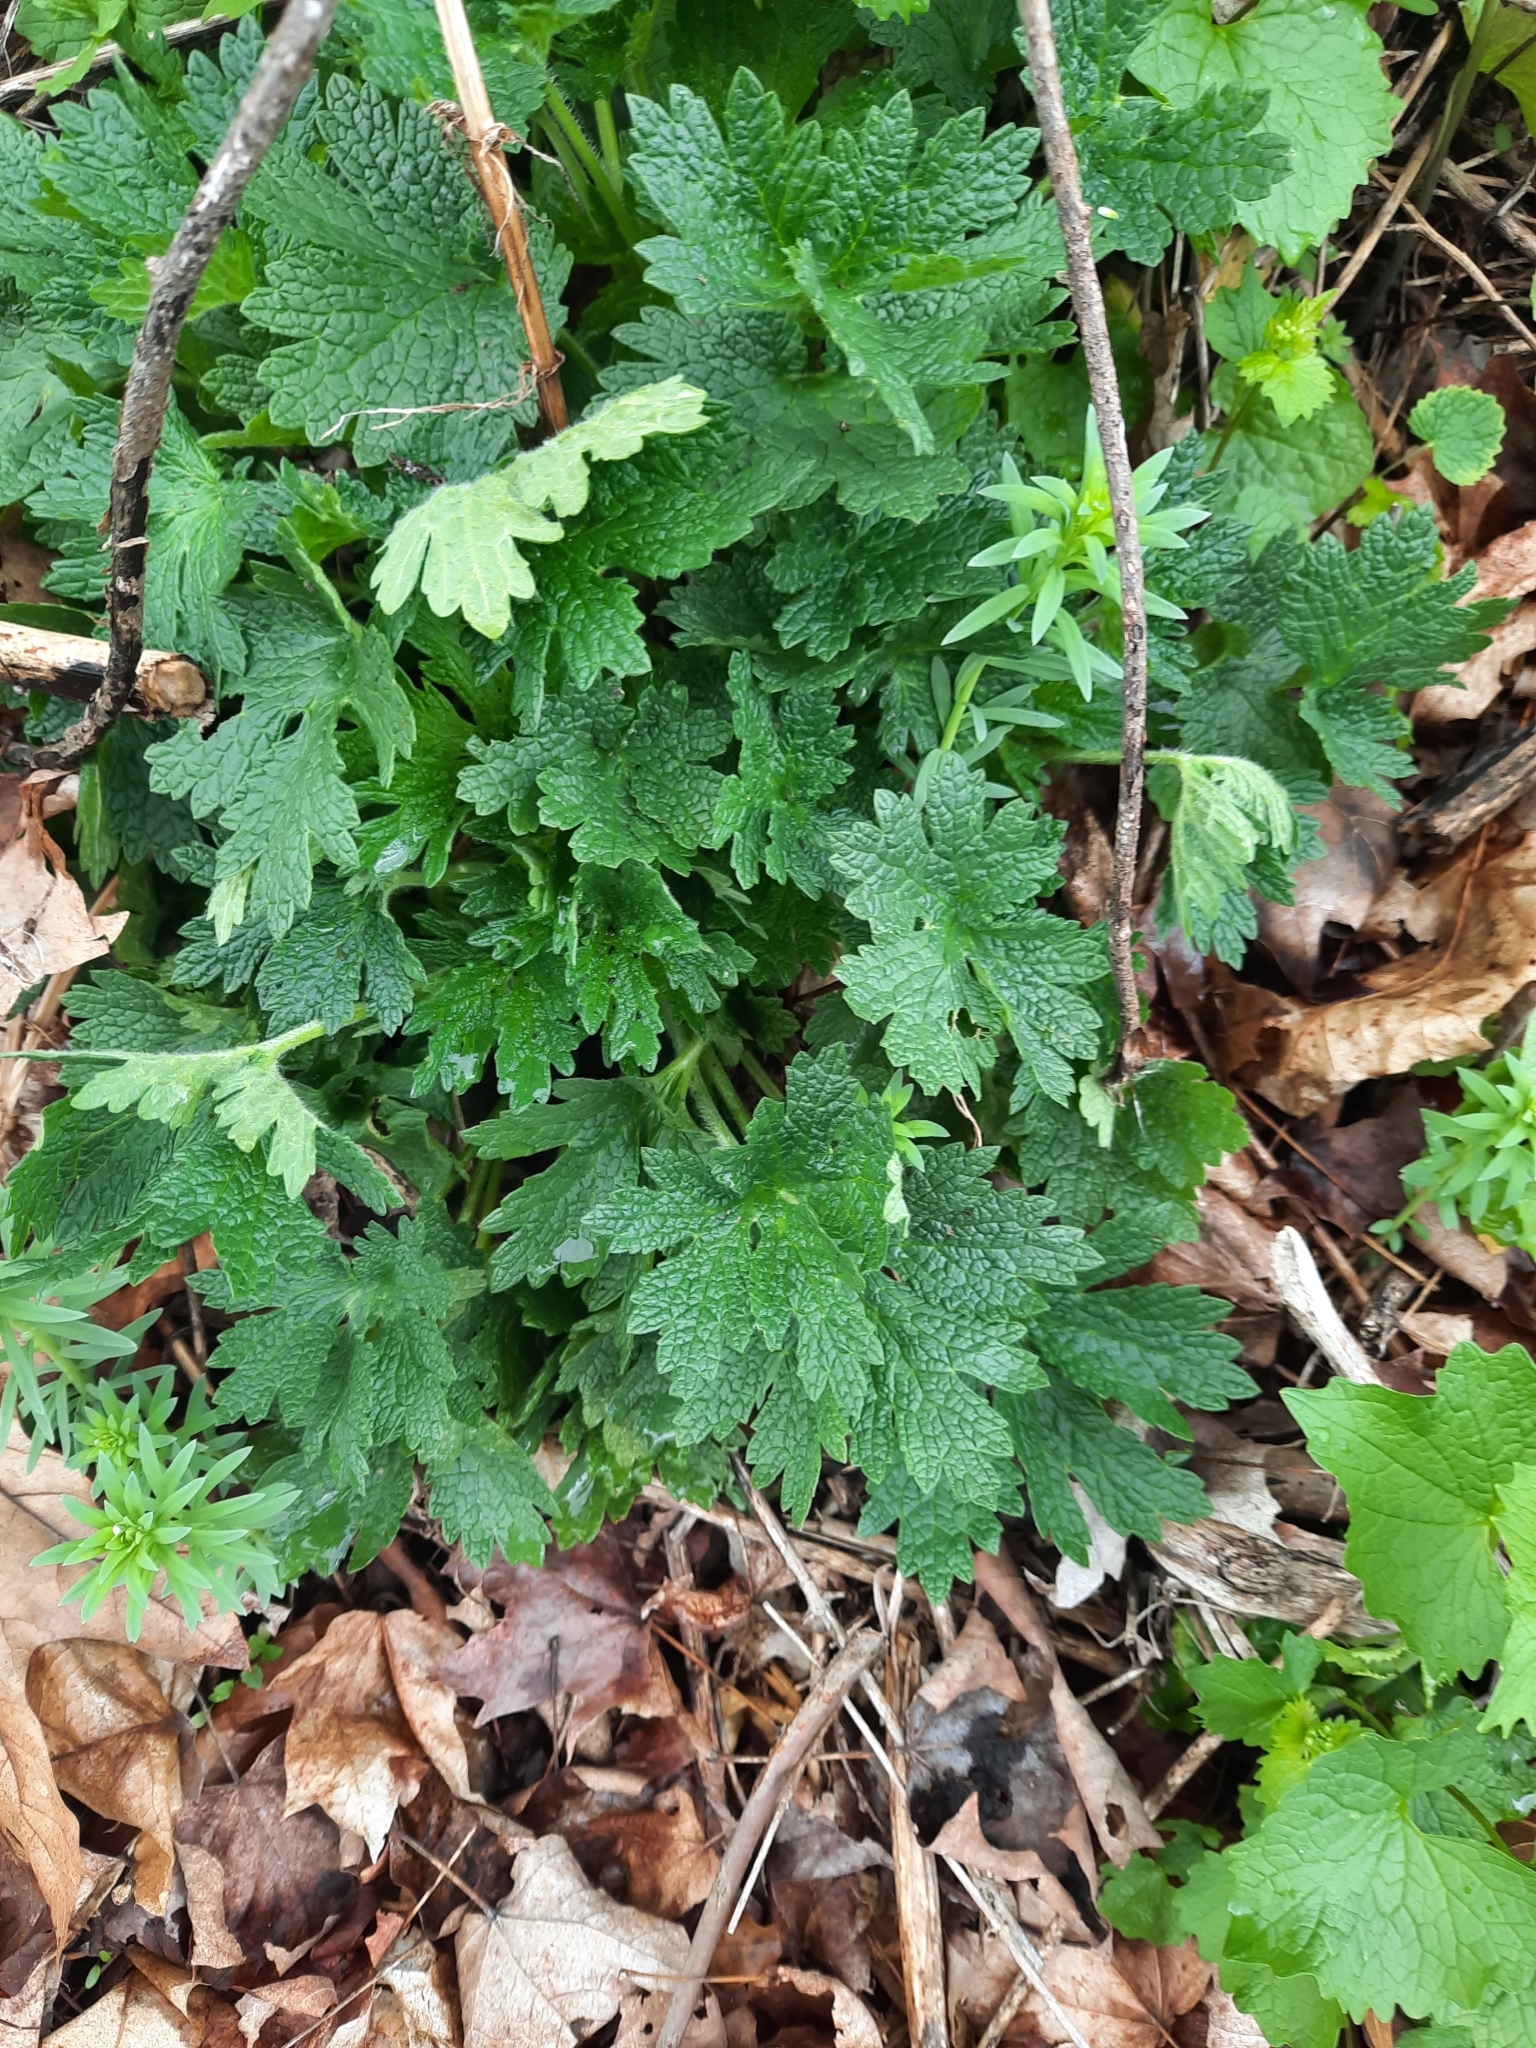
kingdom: Plantae
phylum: Tracheophyta
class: Magnoliopsida
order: Lamiales
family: Lamiaceae
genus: Leonurus
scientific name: Leonurus cardiaca
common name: Motherwort
